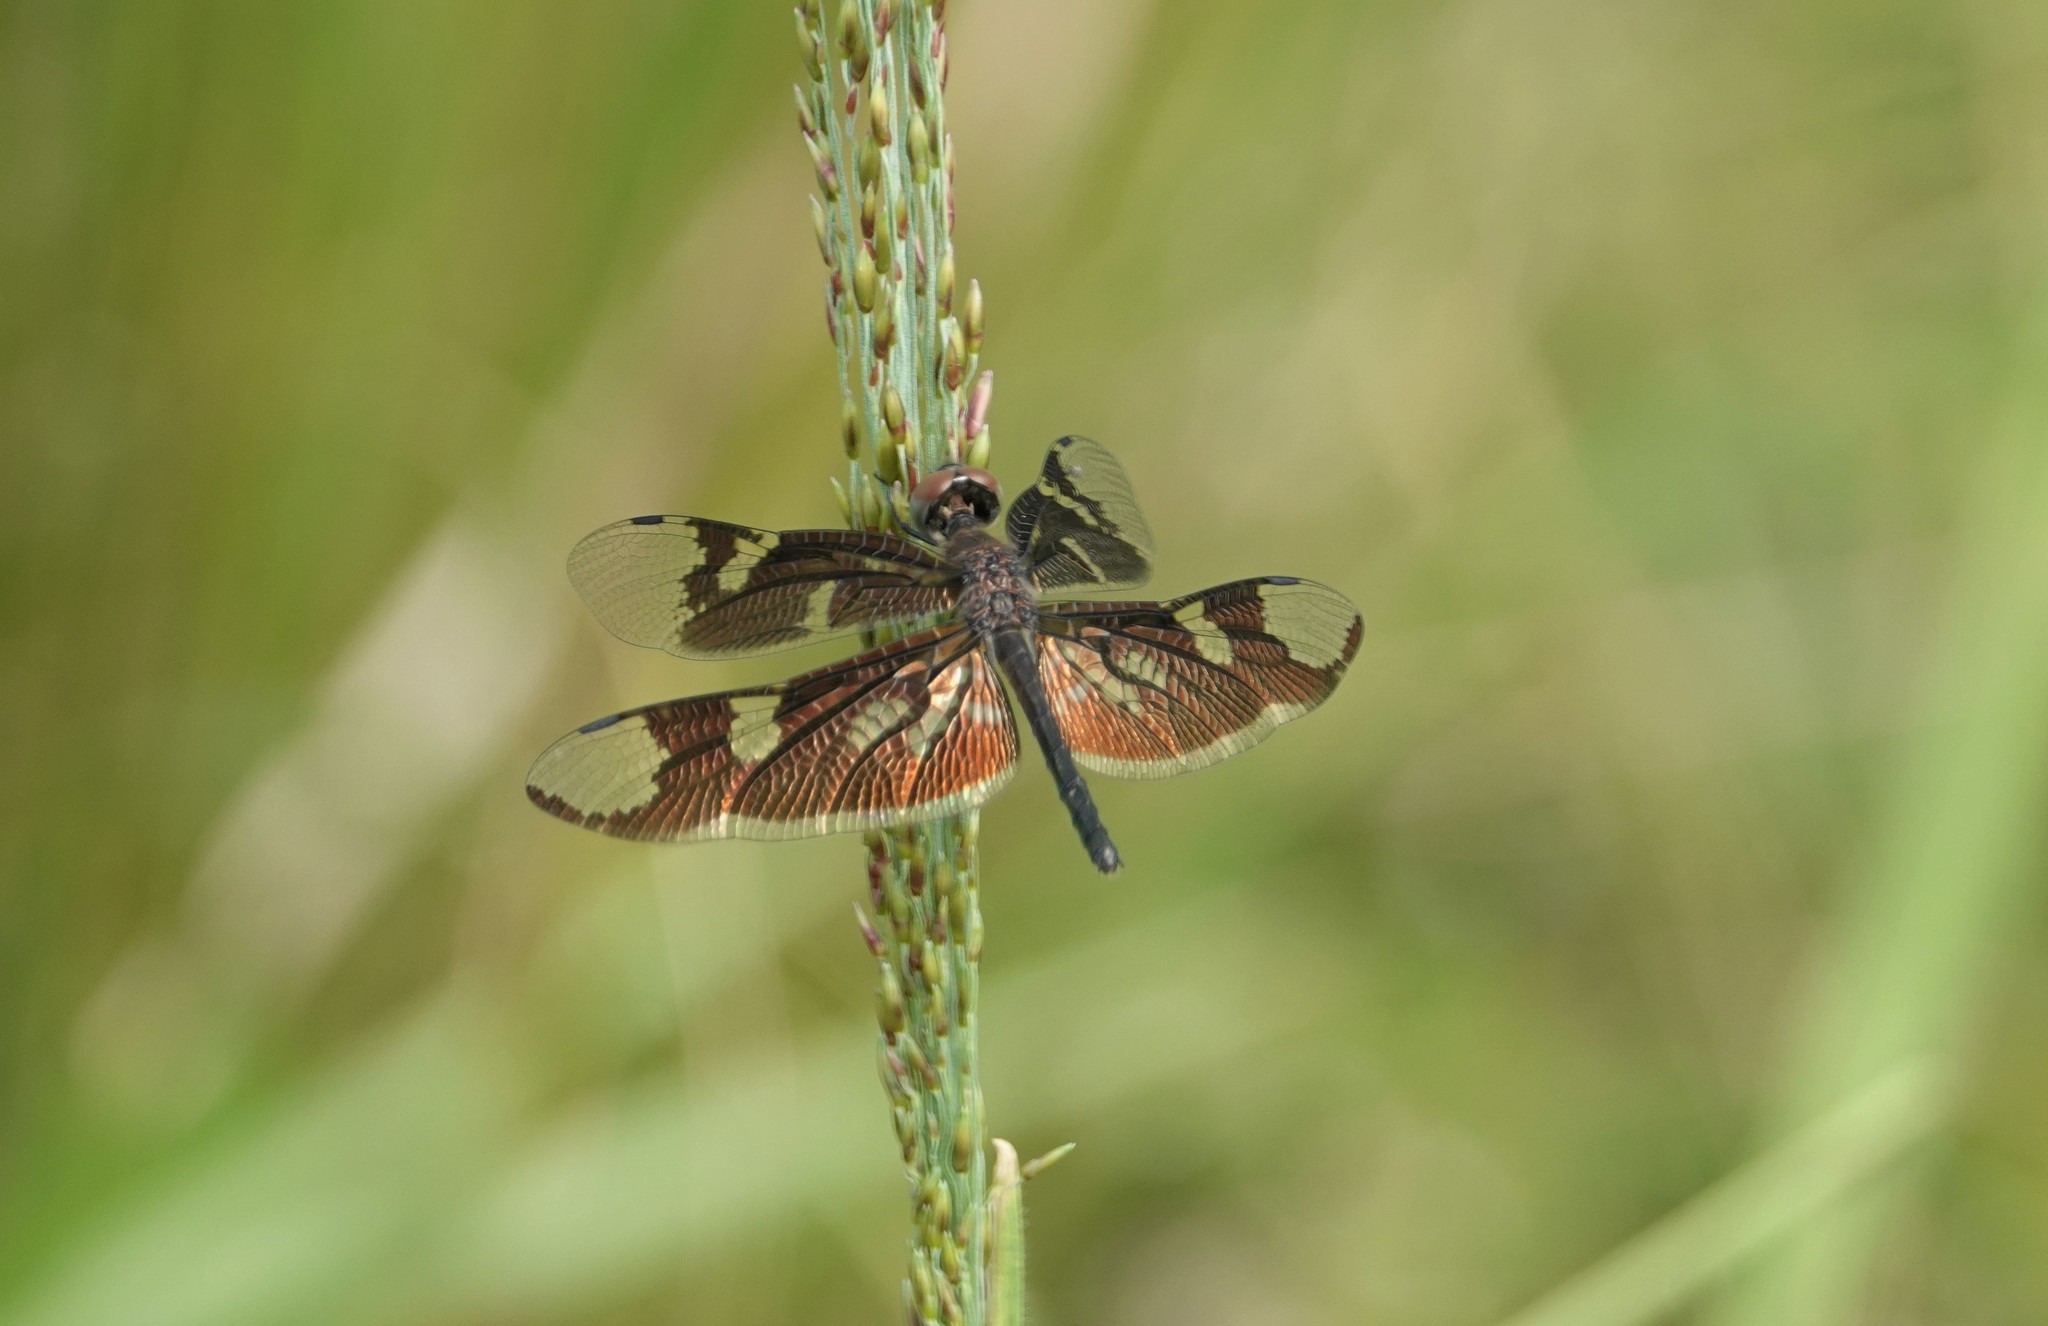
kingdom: Animalia
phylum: Arthropoda
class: Insecta
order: Odonata
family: Libellulidae
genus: Rhyothemis
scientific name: Rhyothemis fenestrina
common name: Skylight flutterer
